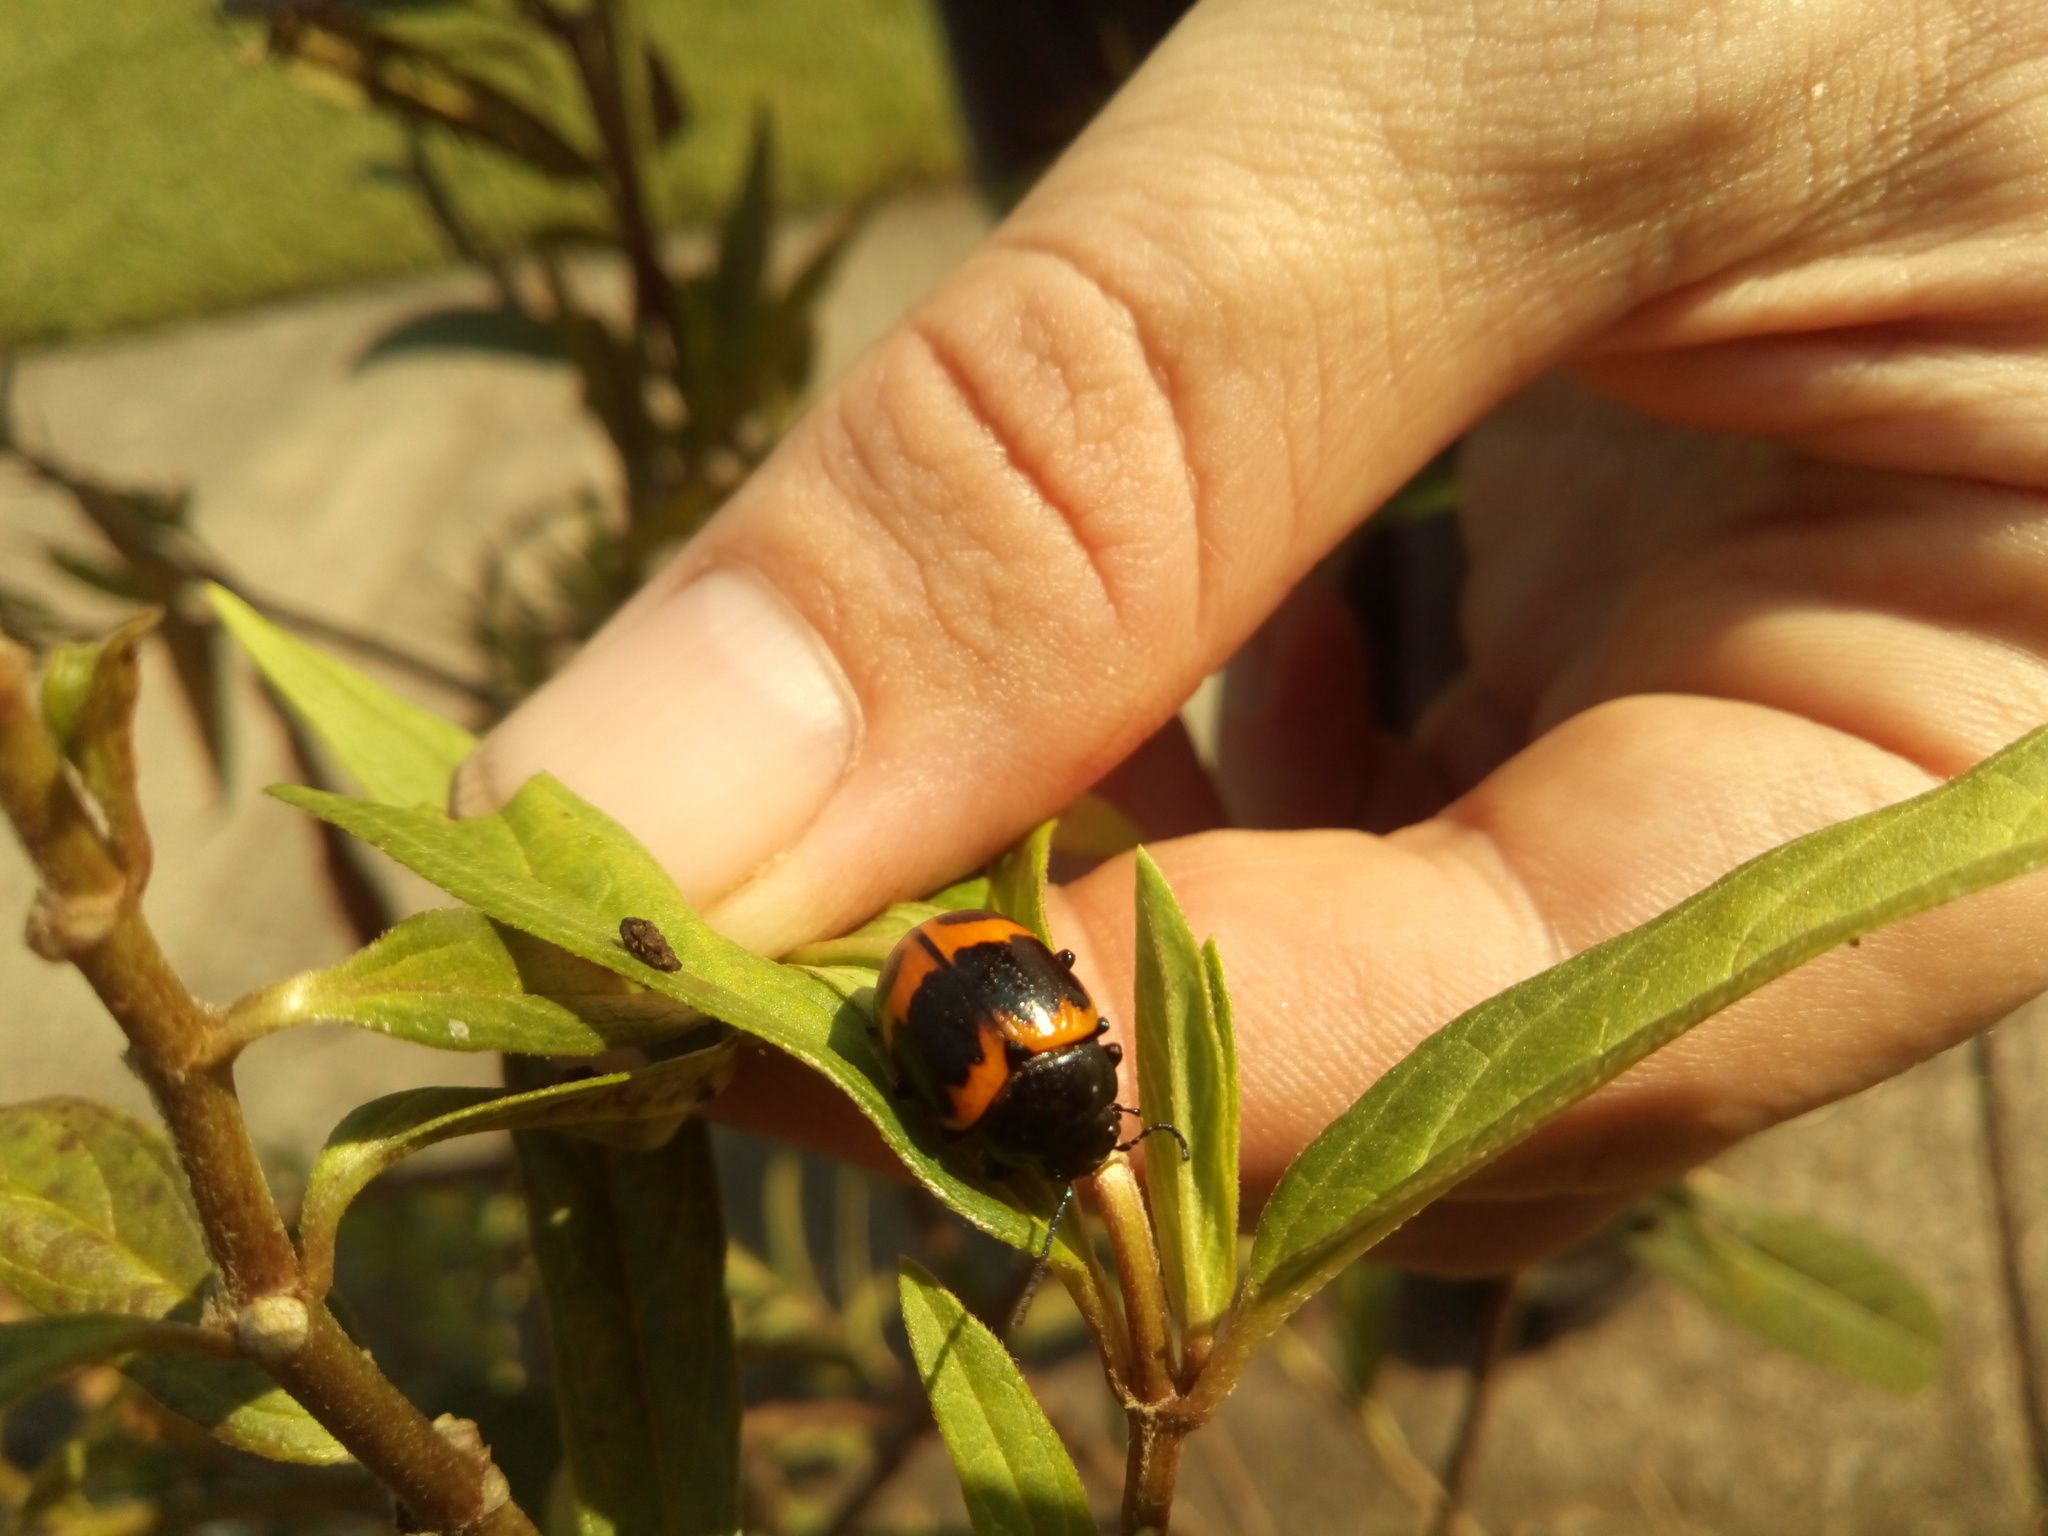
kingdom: Animalia
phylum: Arthropoda
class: Insecta
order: Coleoptera
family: Chrysomelidae
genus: Labidomera
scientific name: Labidomera clivicollis
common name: Swamp milkweed leaf beetle
